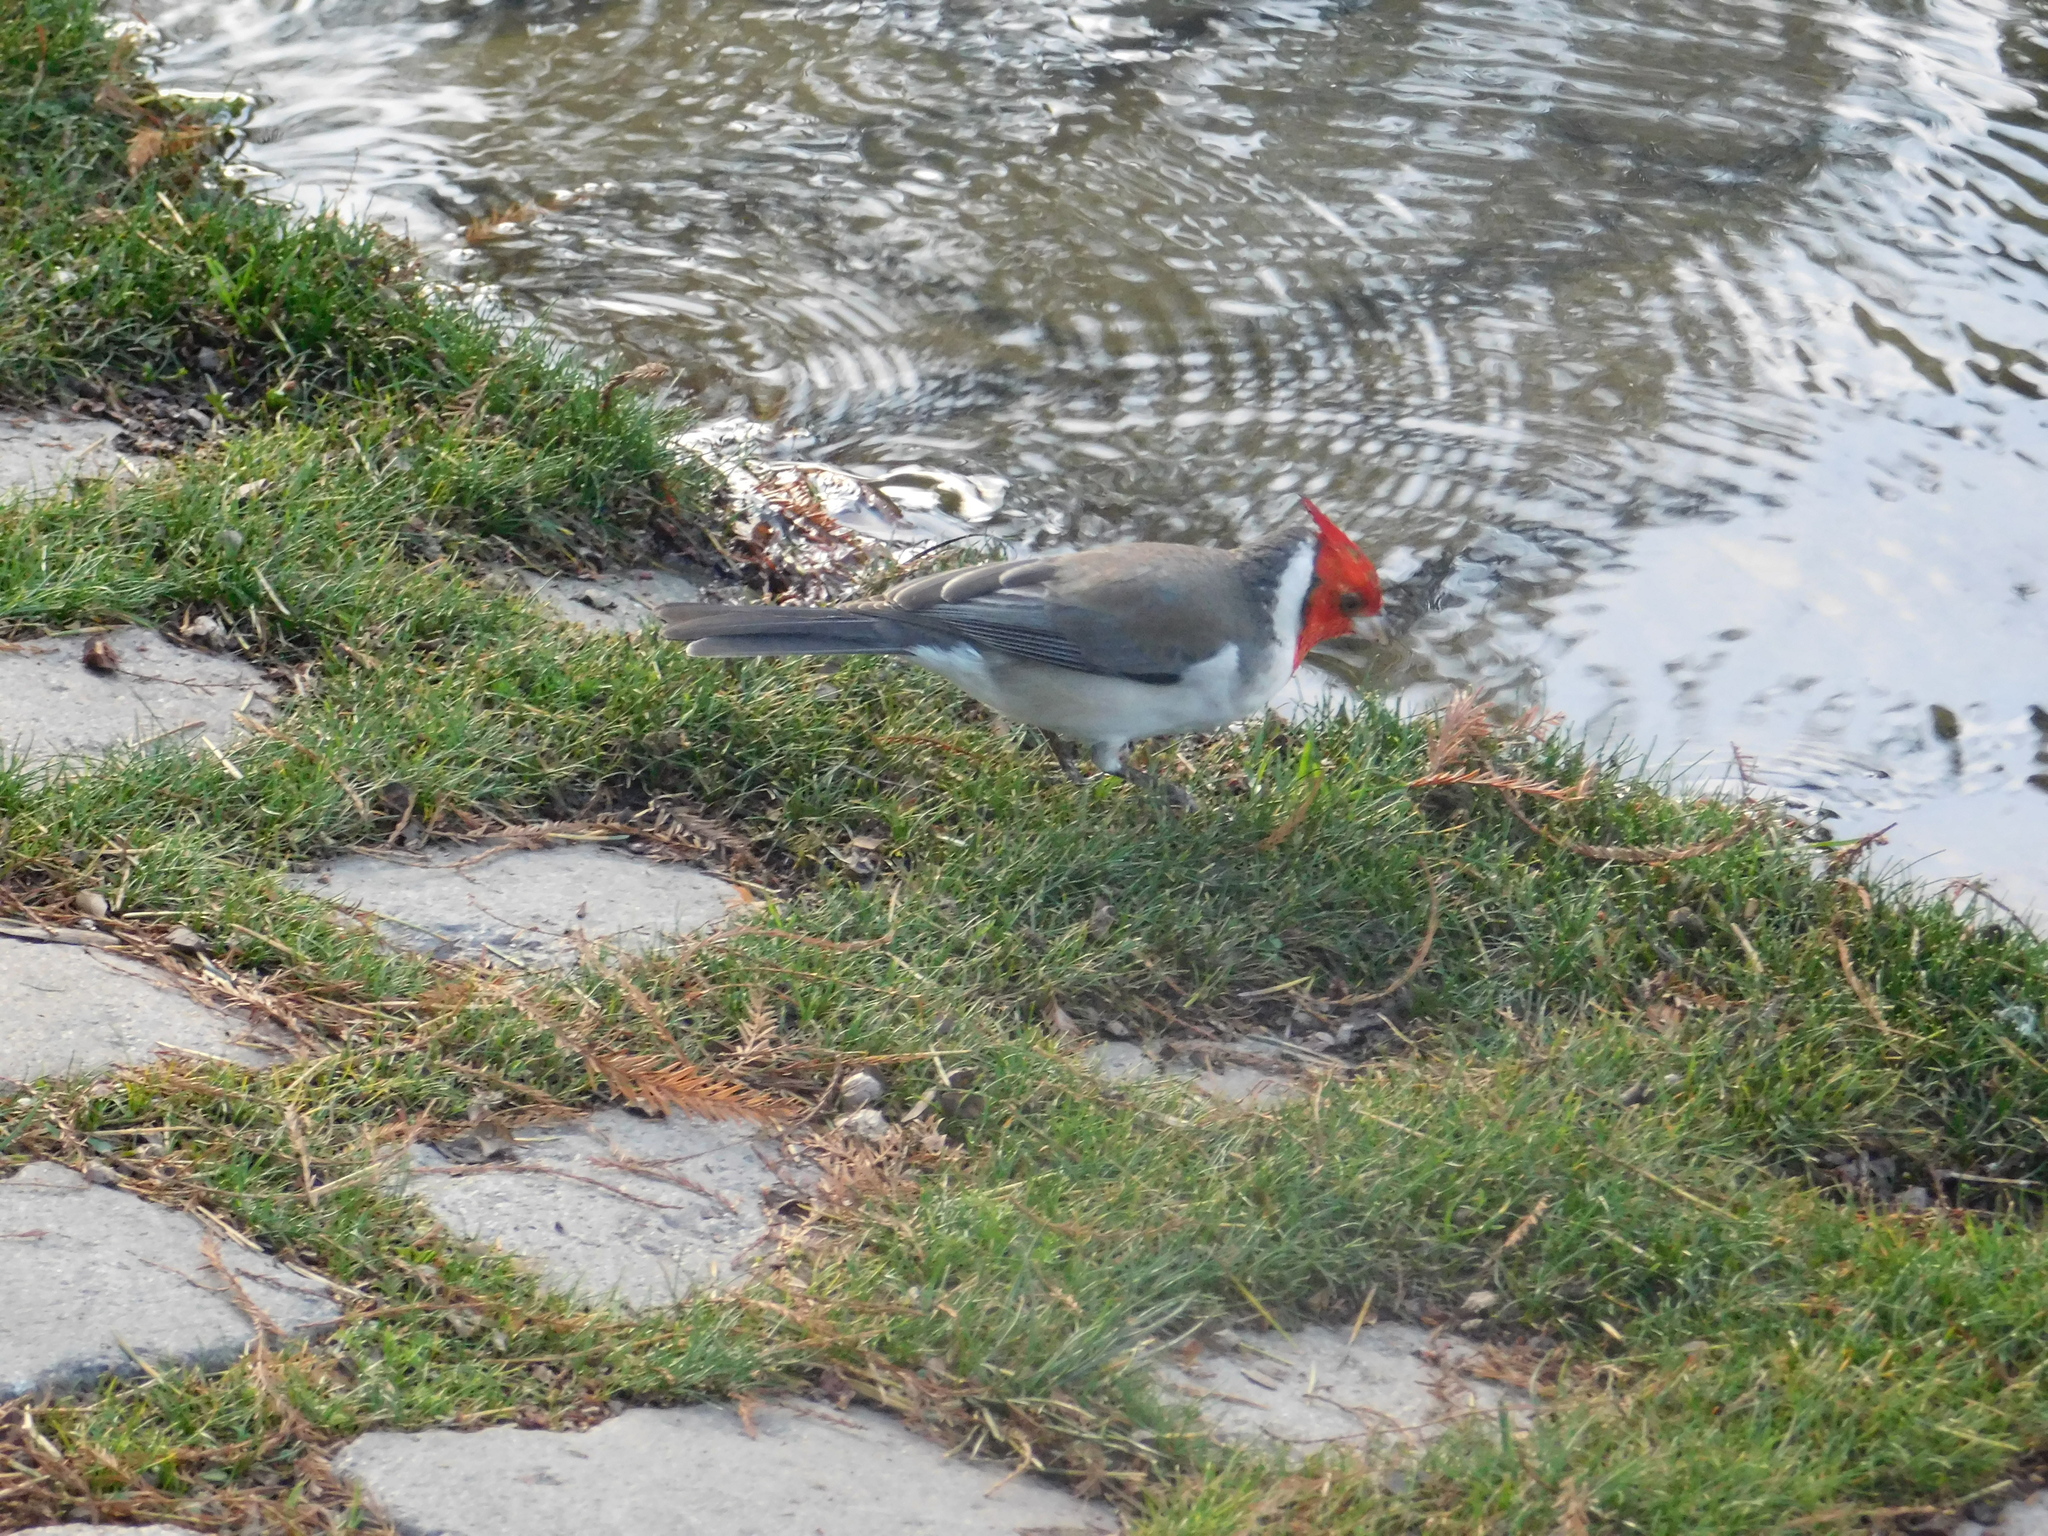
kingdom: Animalia
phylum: Chordata
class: Aves
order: Passeriformes
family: Thraupidae
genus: Paroaria
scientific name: Paroaria coronata
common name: Red-crested cardinal
